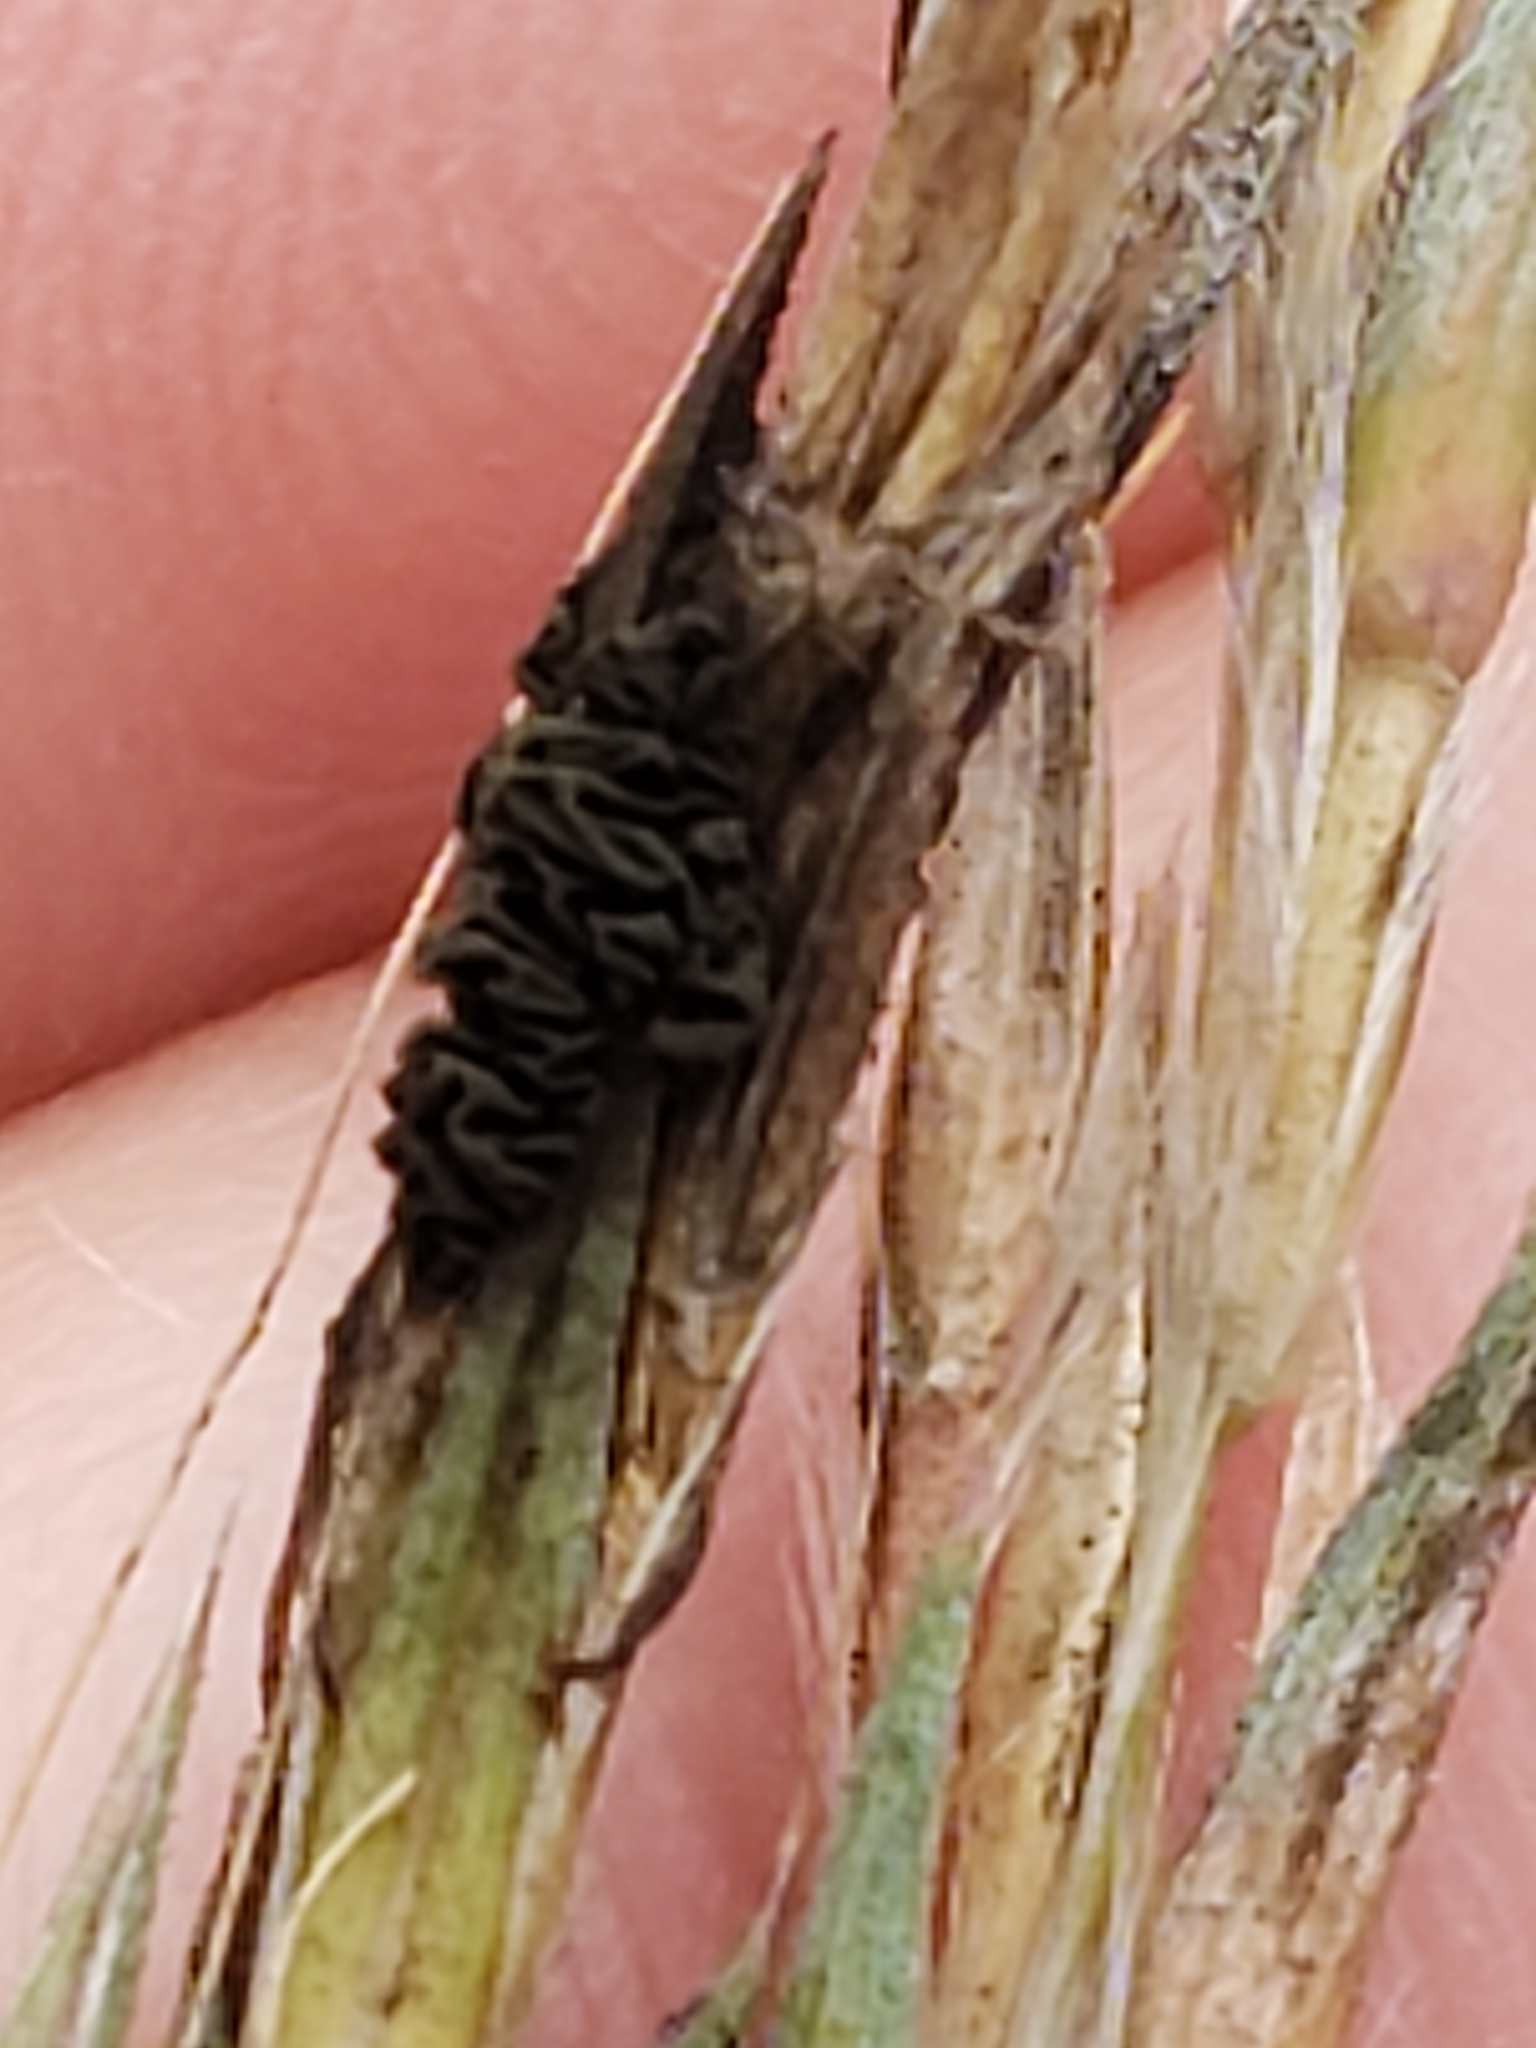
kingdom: Fungi
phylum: Ascomycota
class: Dothideomycetes
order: Pleosporales
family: Didymellaceae
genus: Epicoccum
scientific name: Epicoccum andropogonis
